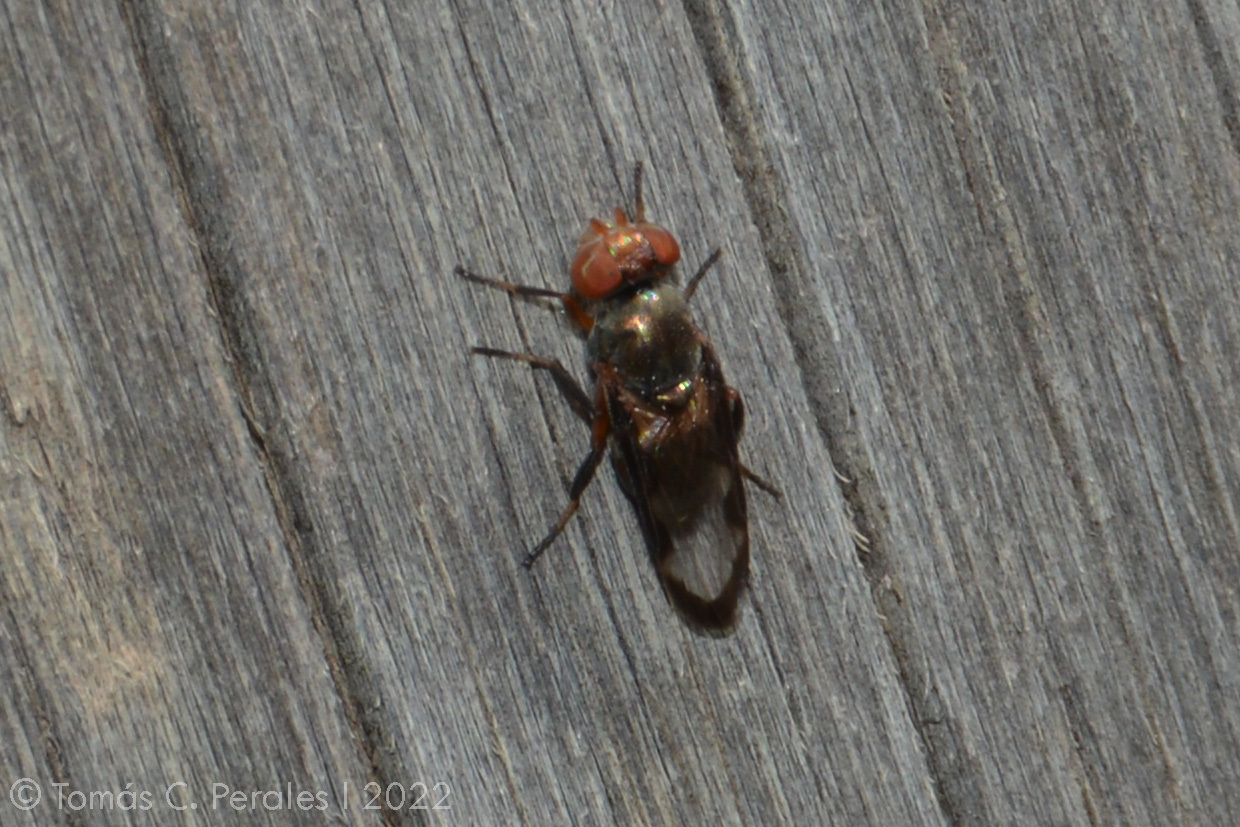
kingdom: Animalia
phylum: Arthropoda
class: Insecta
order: Diptera
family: Ulidiidae
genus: Acrostictomyia
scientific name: Acrostictomyia subapicalis
